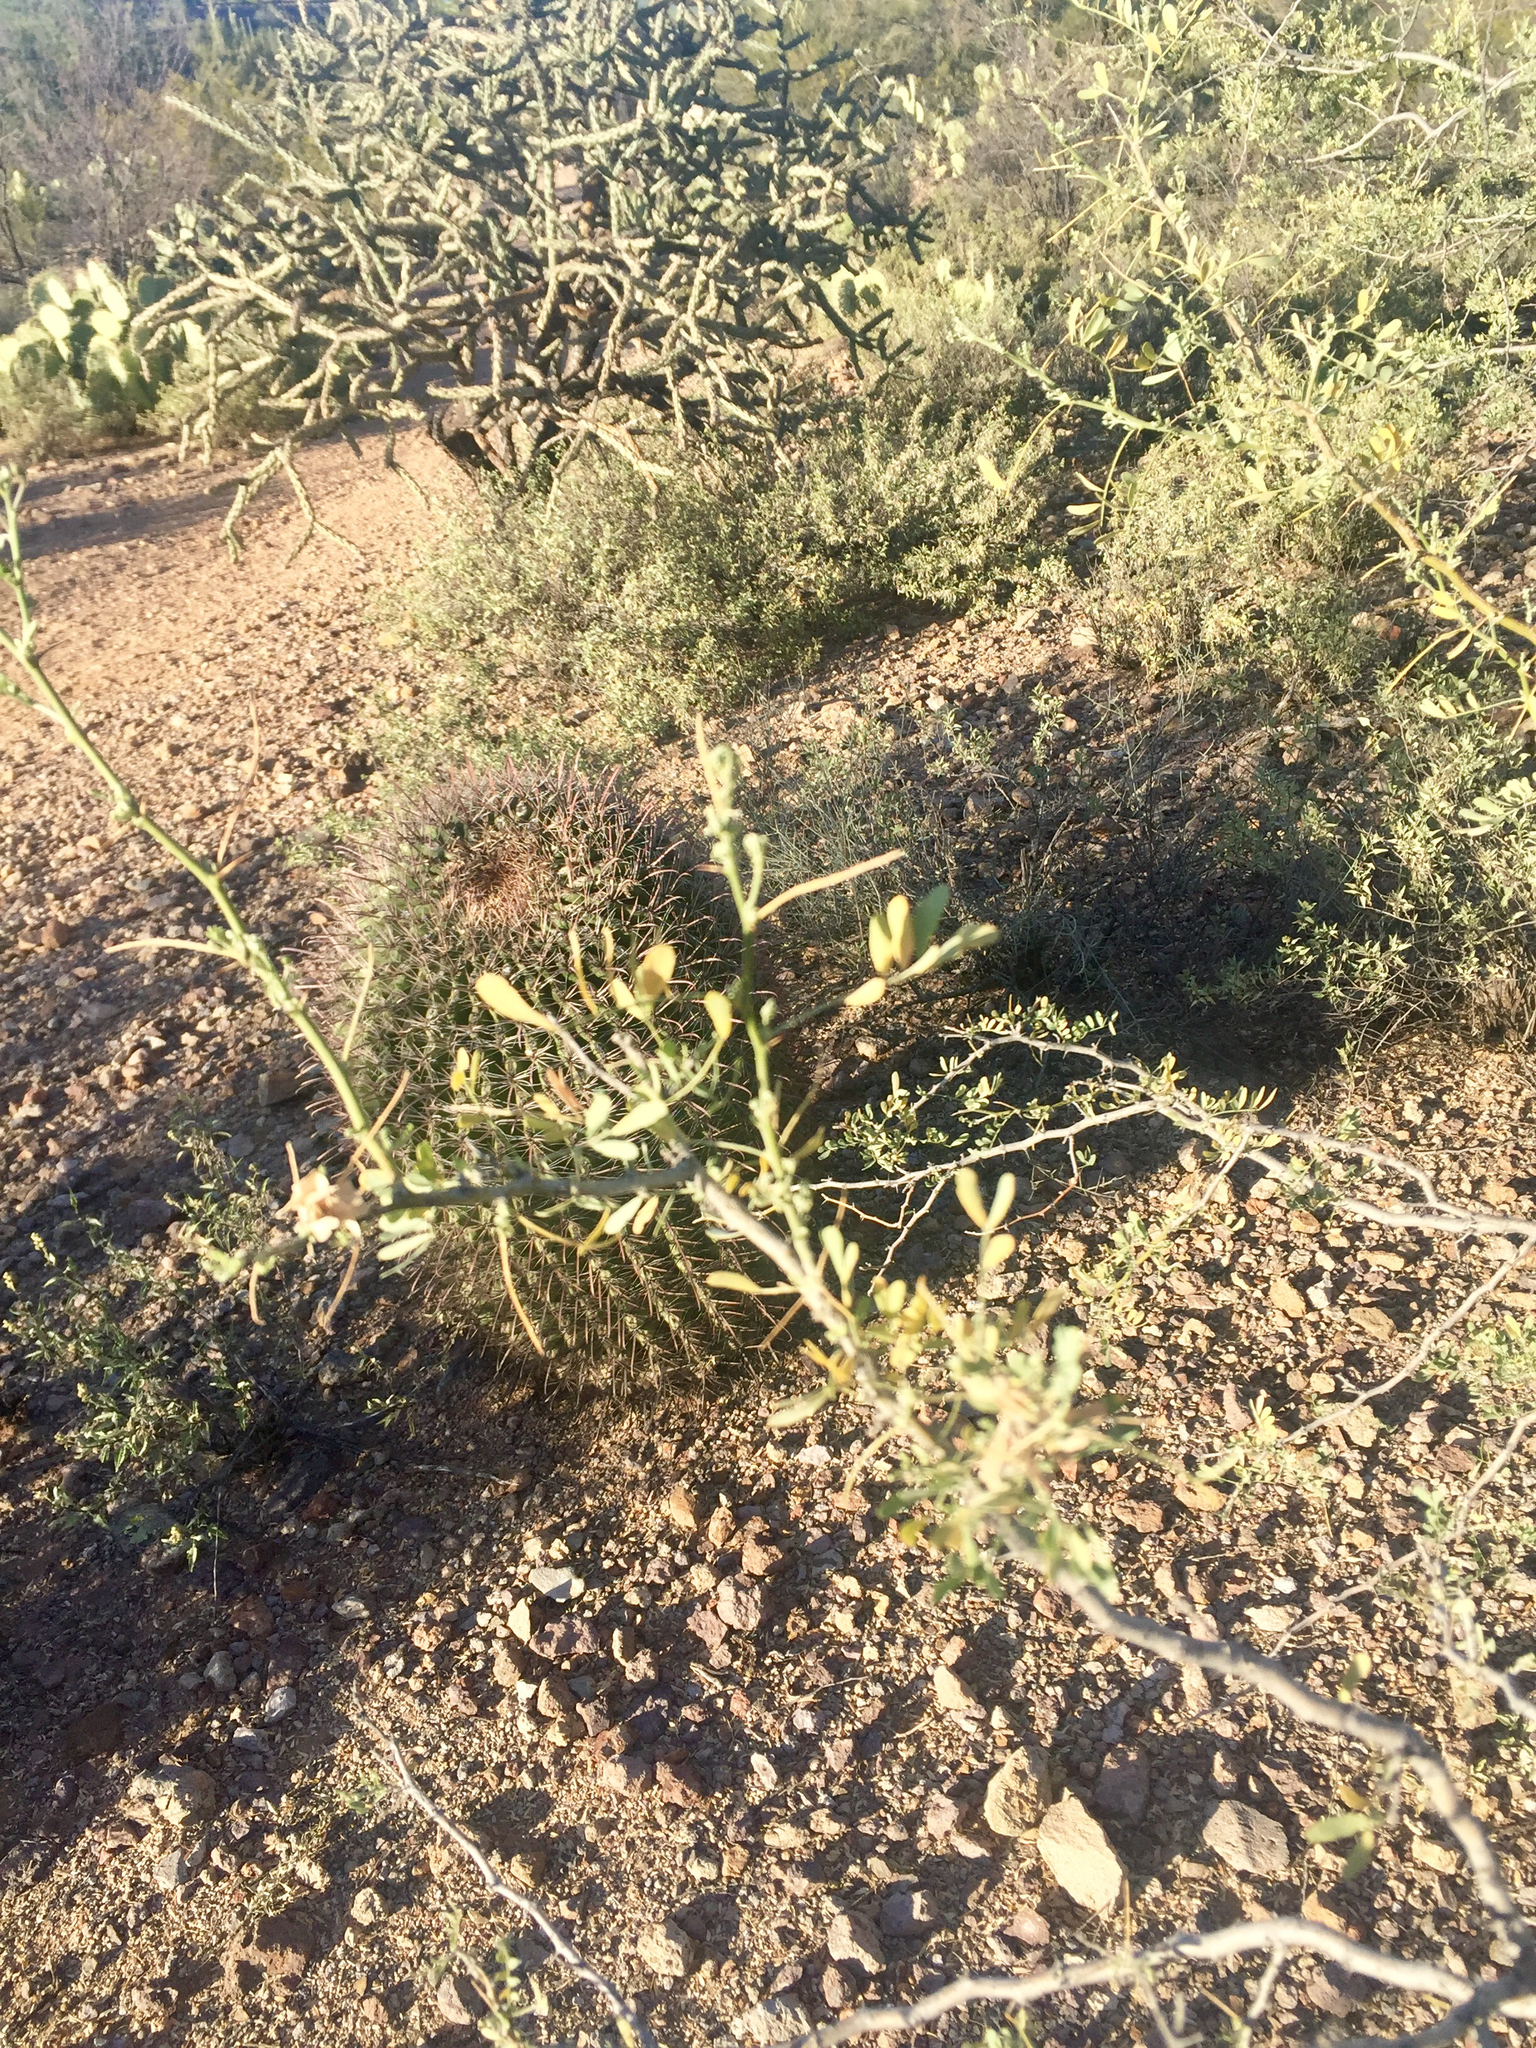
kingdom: Plantae
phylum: Tracheophyta
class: Magnoliopsida
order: Fabales
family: Fabaceae
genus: Olneya
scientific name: Olneya tesota
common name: Desert ironwood
